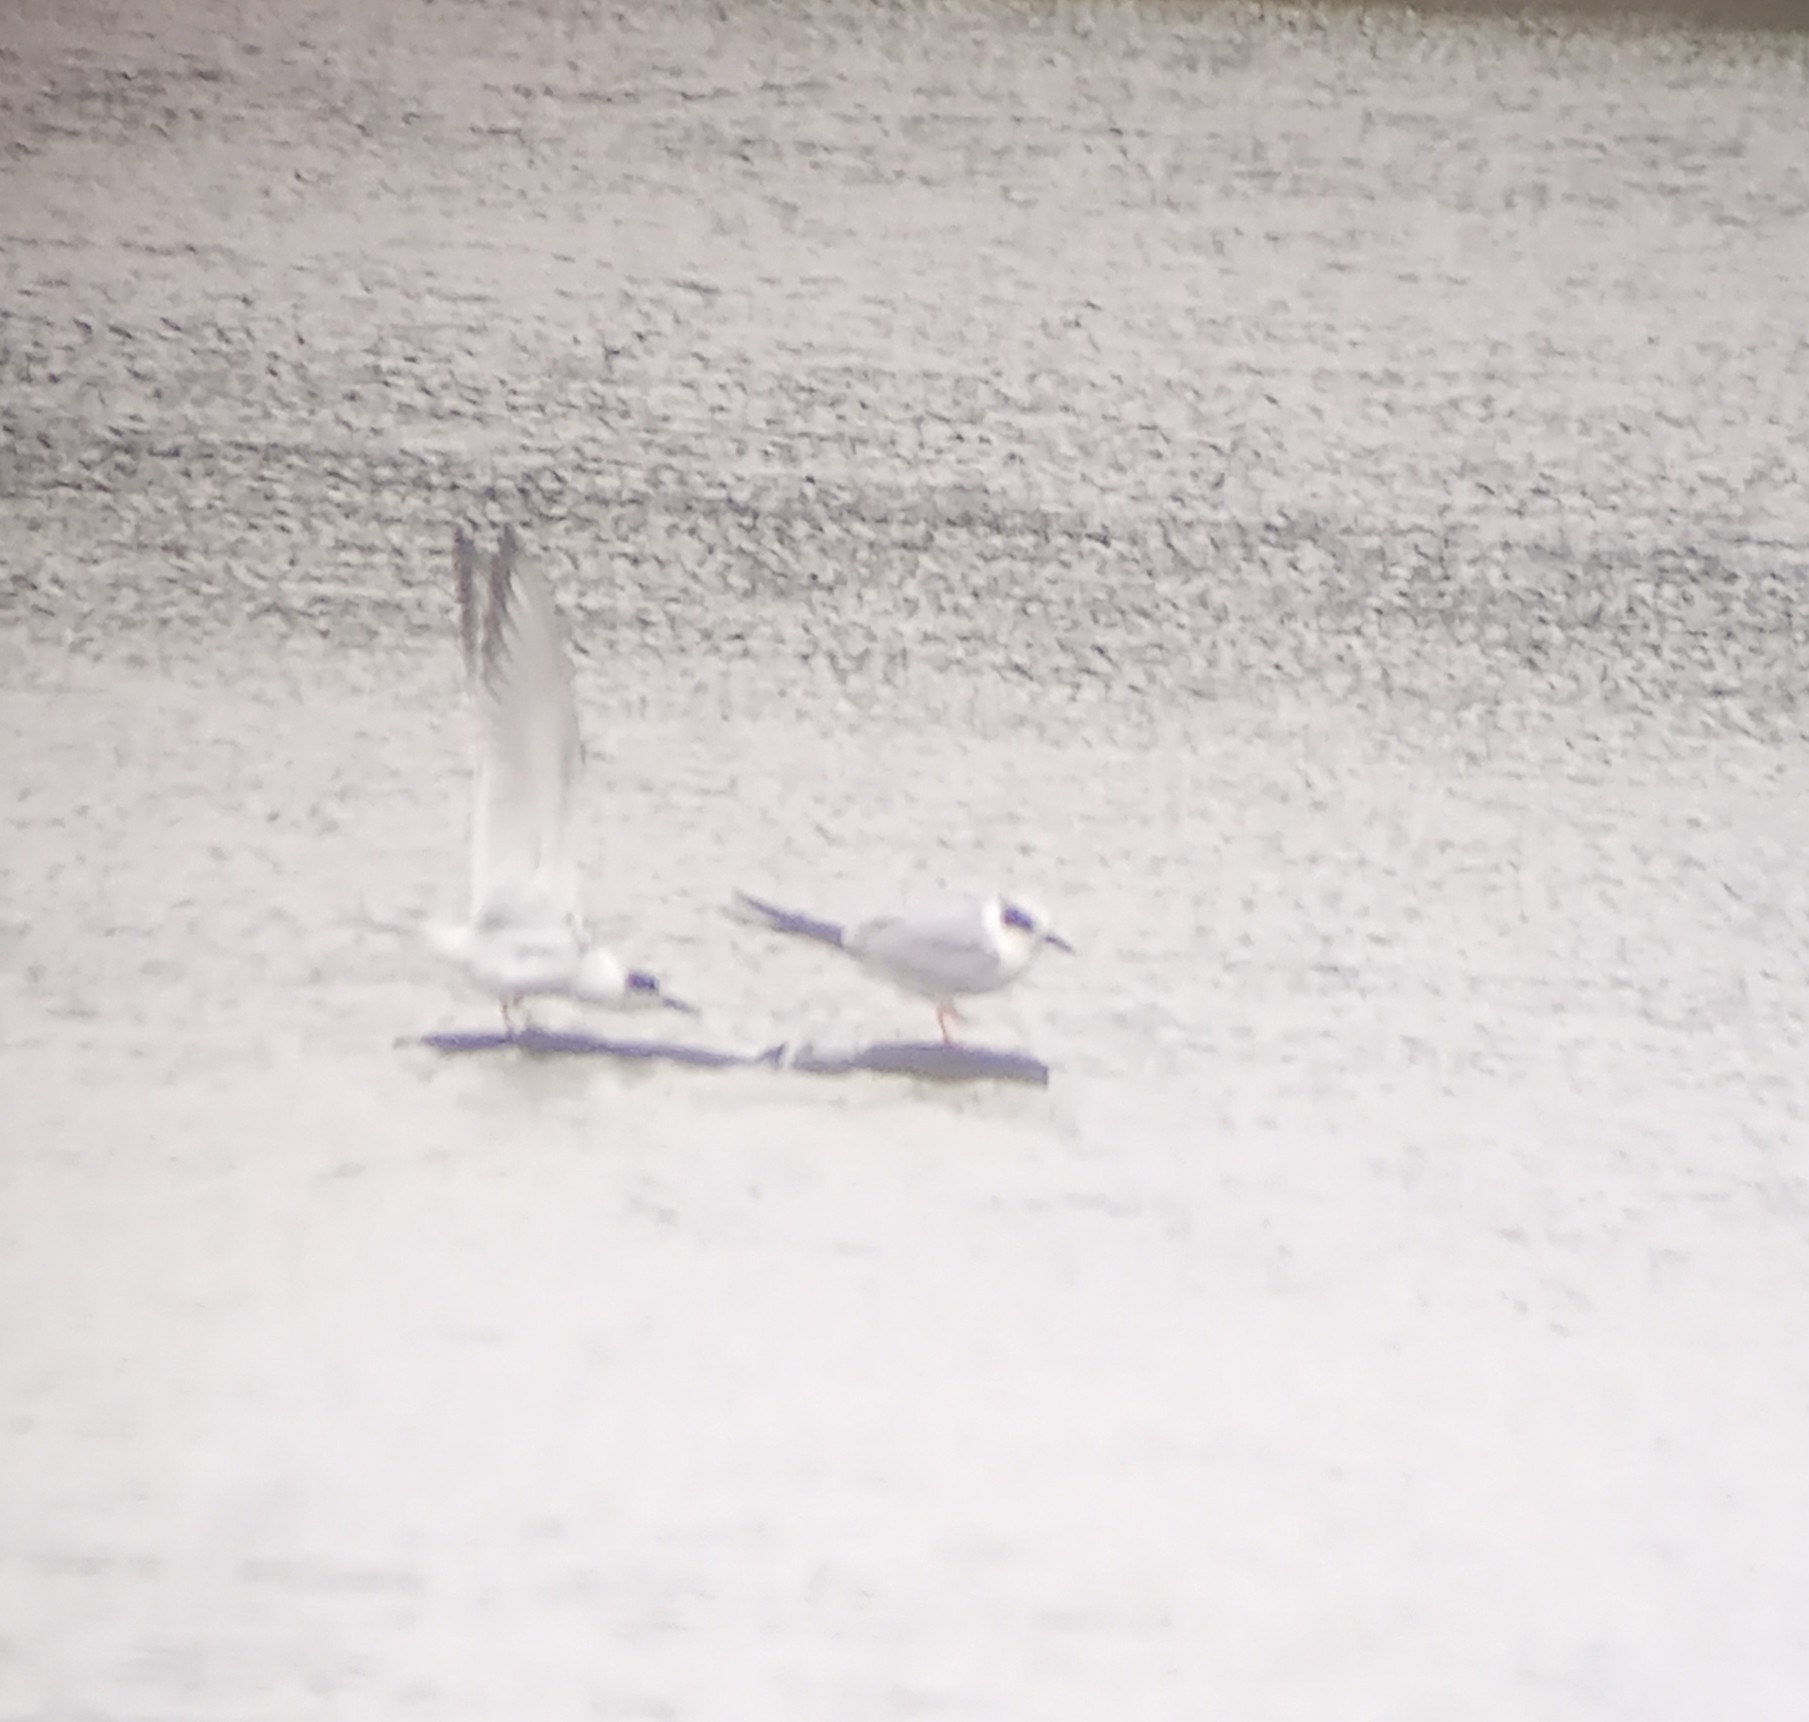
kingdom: Animalia
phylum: Chordata
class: Aves
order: Charadriiformes
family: Laridae
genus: Sterna
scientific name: Sterna forsteri
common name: Forster's tern
